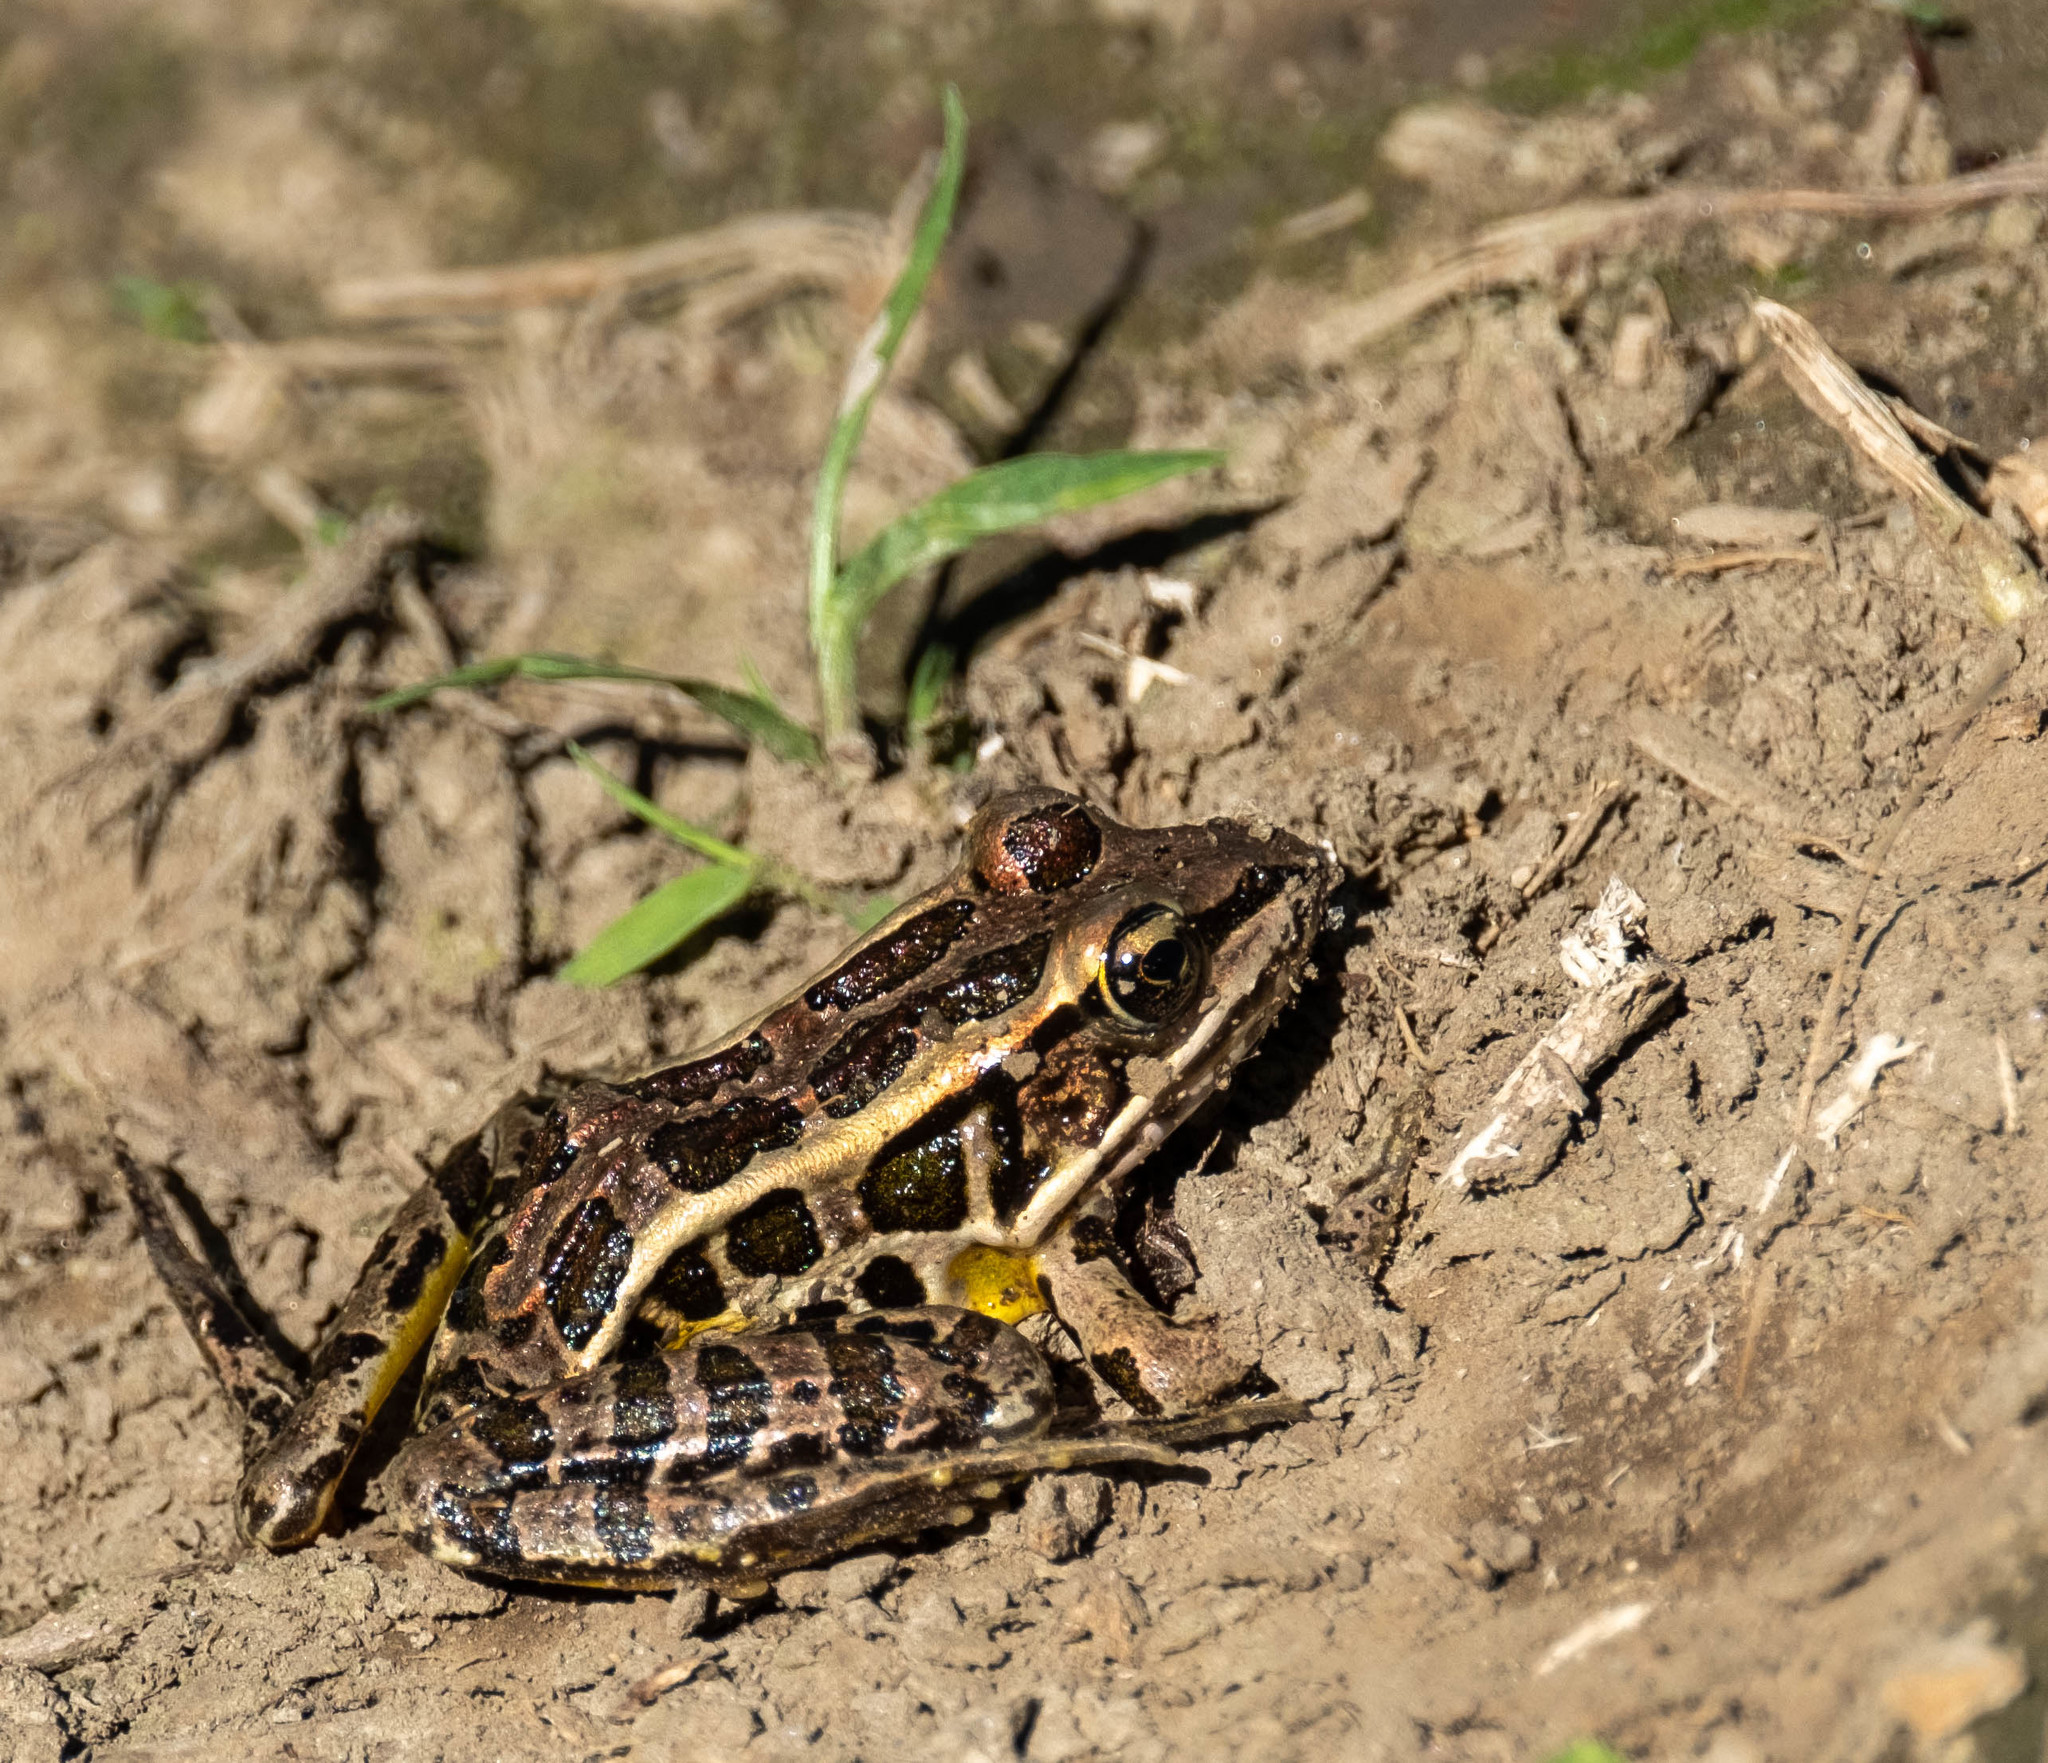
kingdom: Animalia
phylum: Chordata
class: Amphibia
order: Anura
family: Ranidae
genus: Lithobates
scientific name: Lithobates palustris
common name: Pickerel frog
